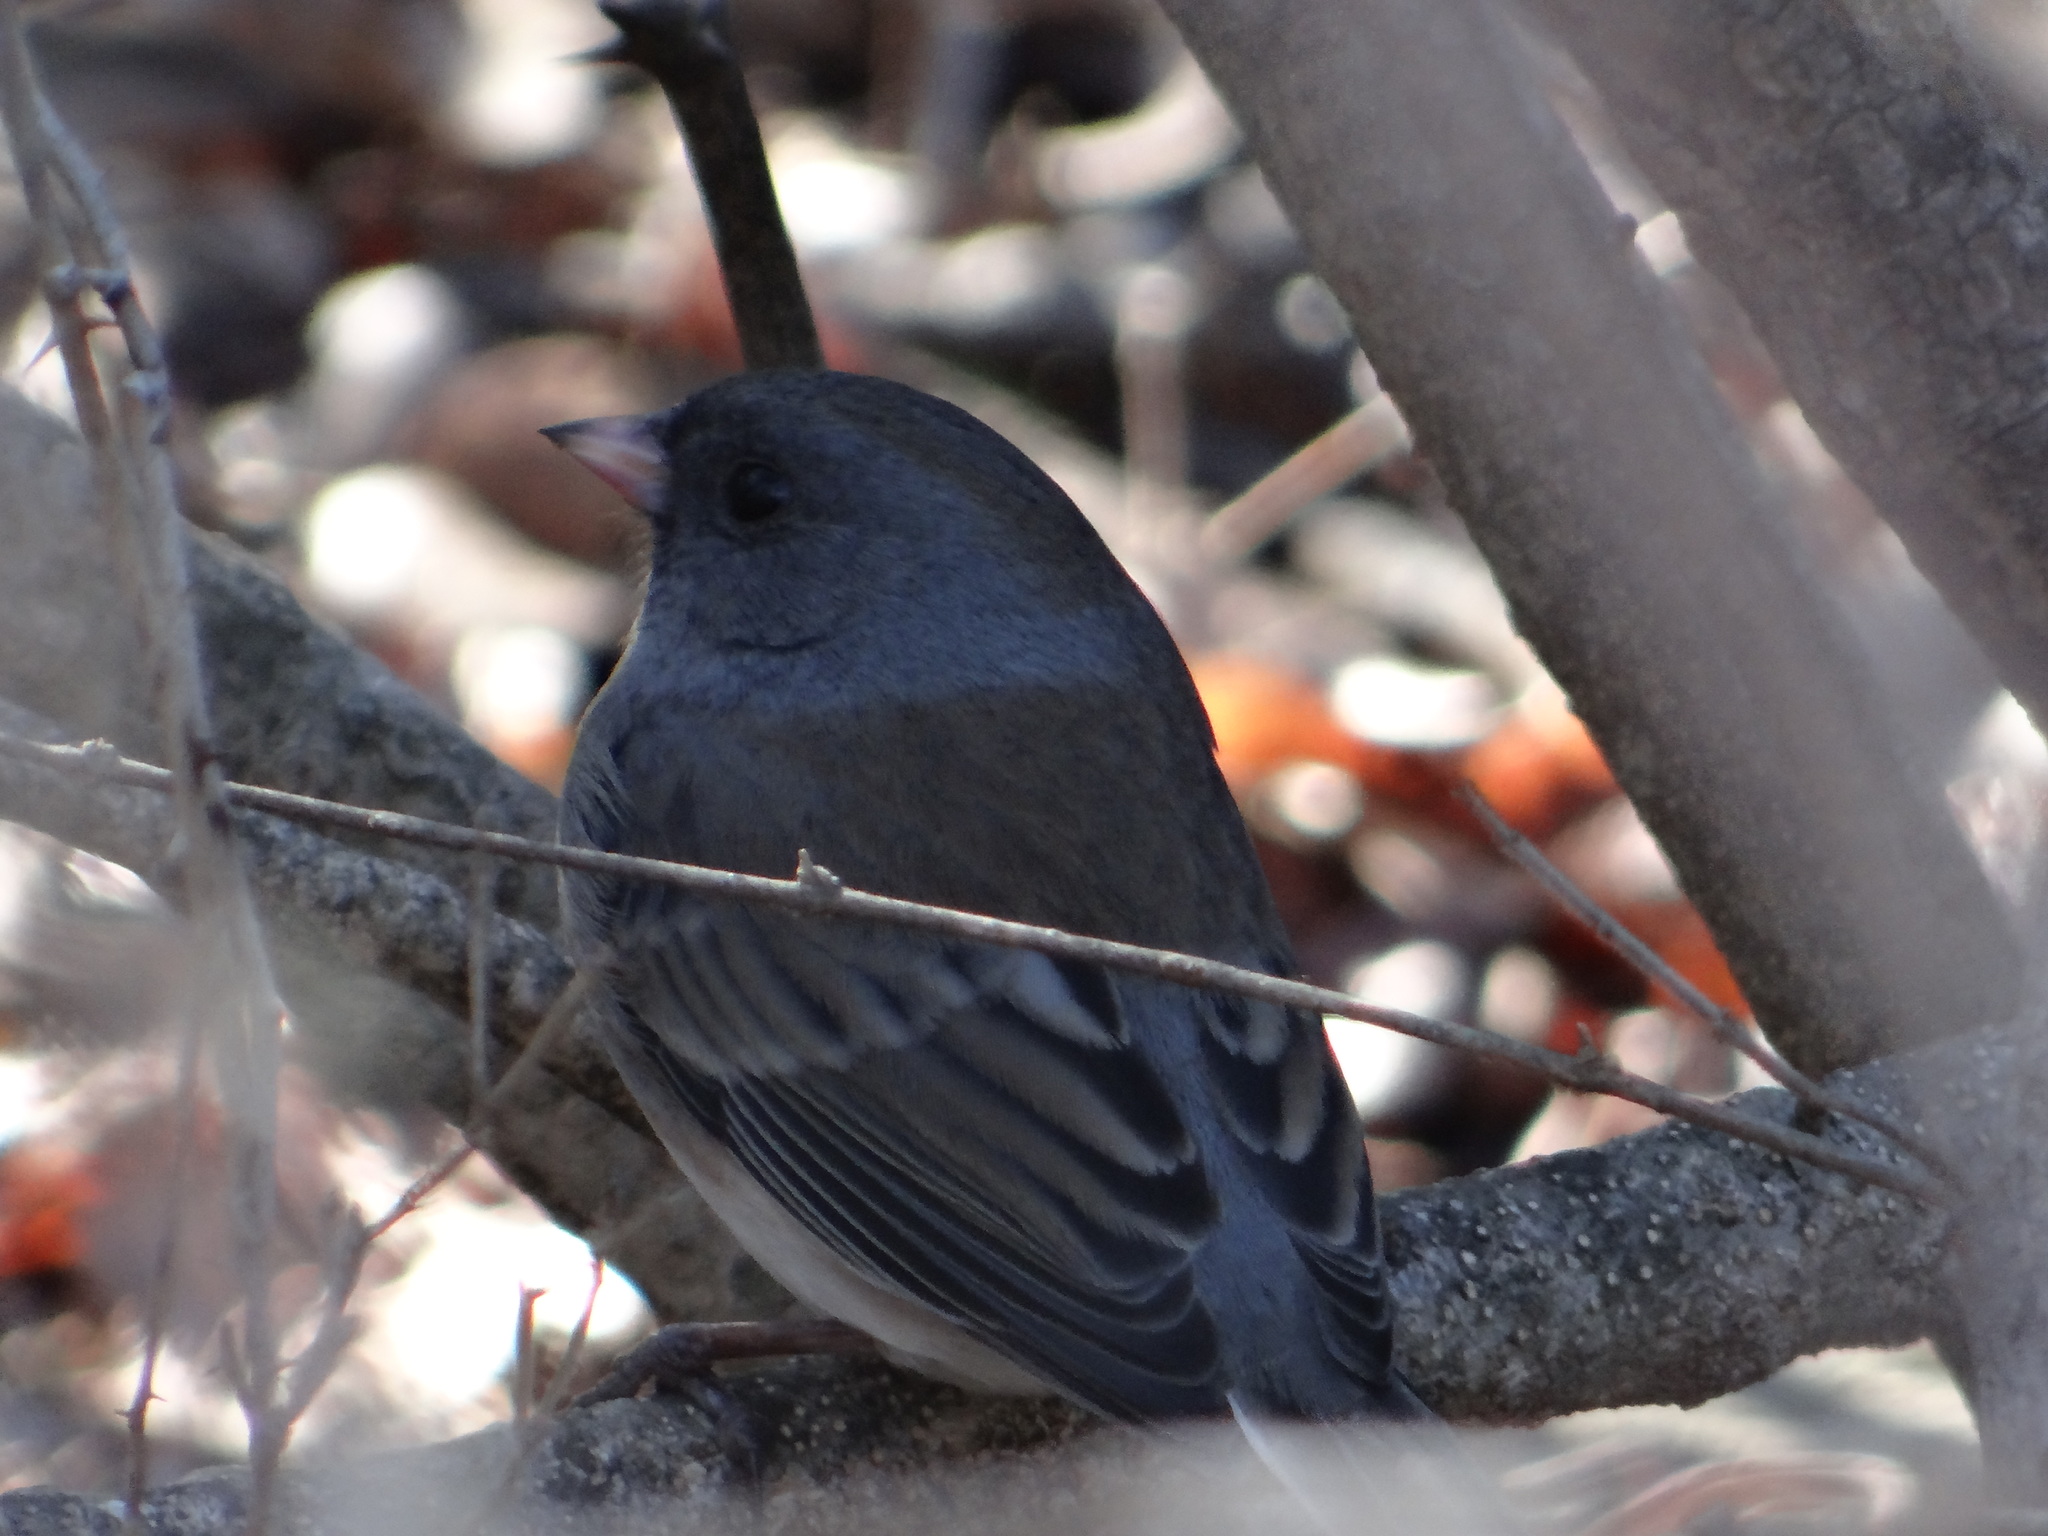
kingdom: Animalia
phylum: Chordata
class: Aves
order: Passeriformes
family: Passerellidae
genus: Junco
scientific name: Junco hyemalis
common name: Dark-eyed junco
